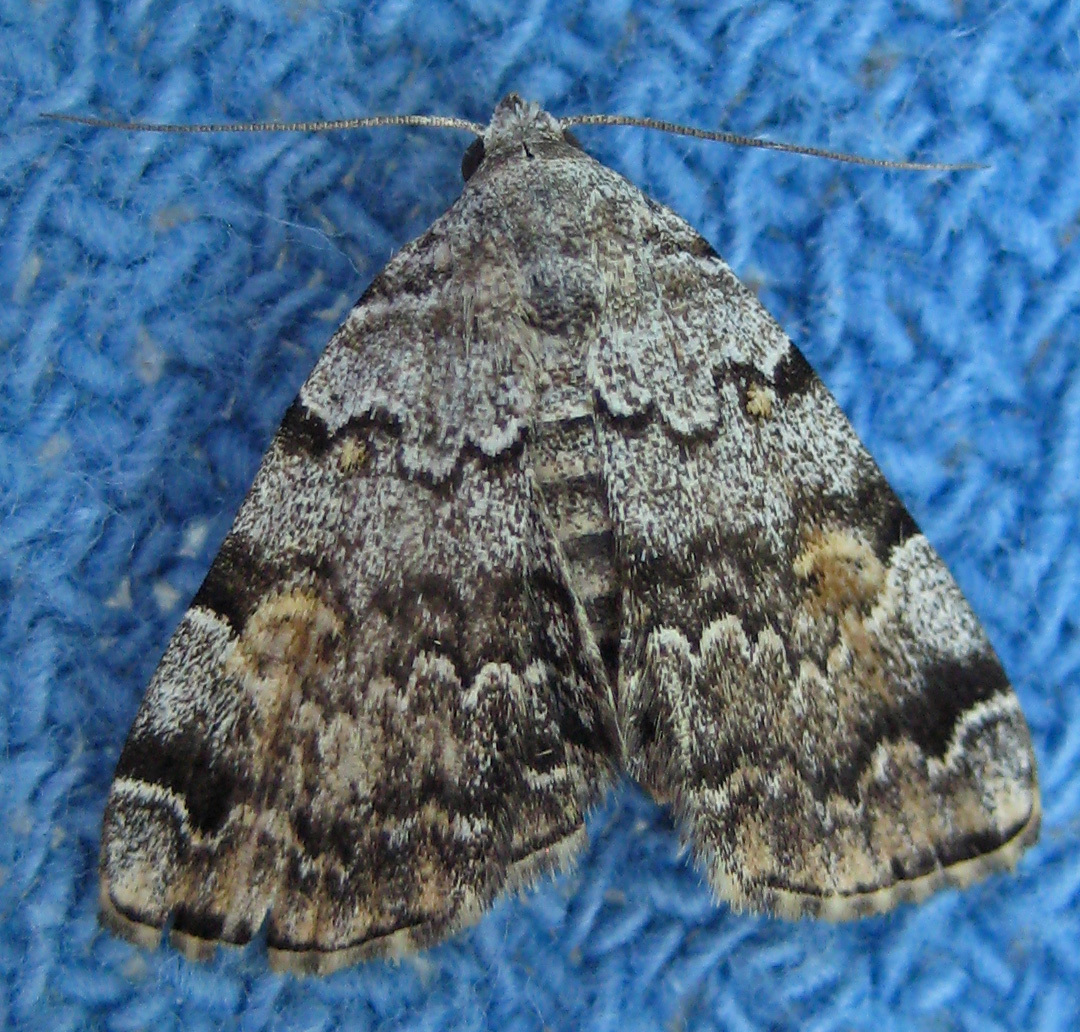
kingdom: Animalia
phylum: Arthropoda
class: Insecta
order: Lepidoptera
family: Erebidae
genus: Idia
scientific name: Idia americalis
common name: American idia moth
